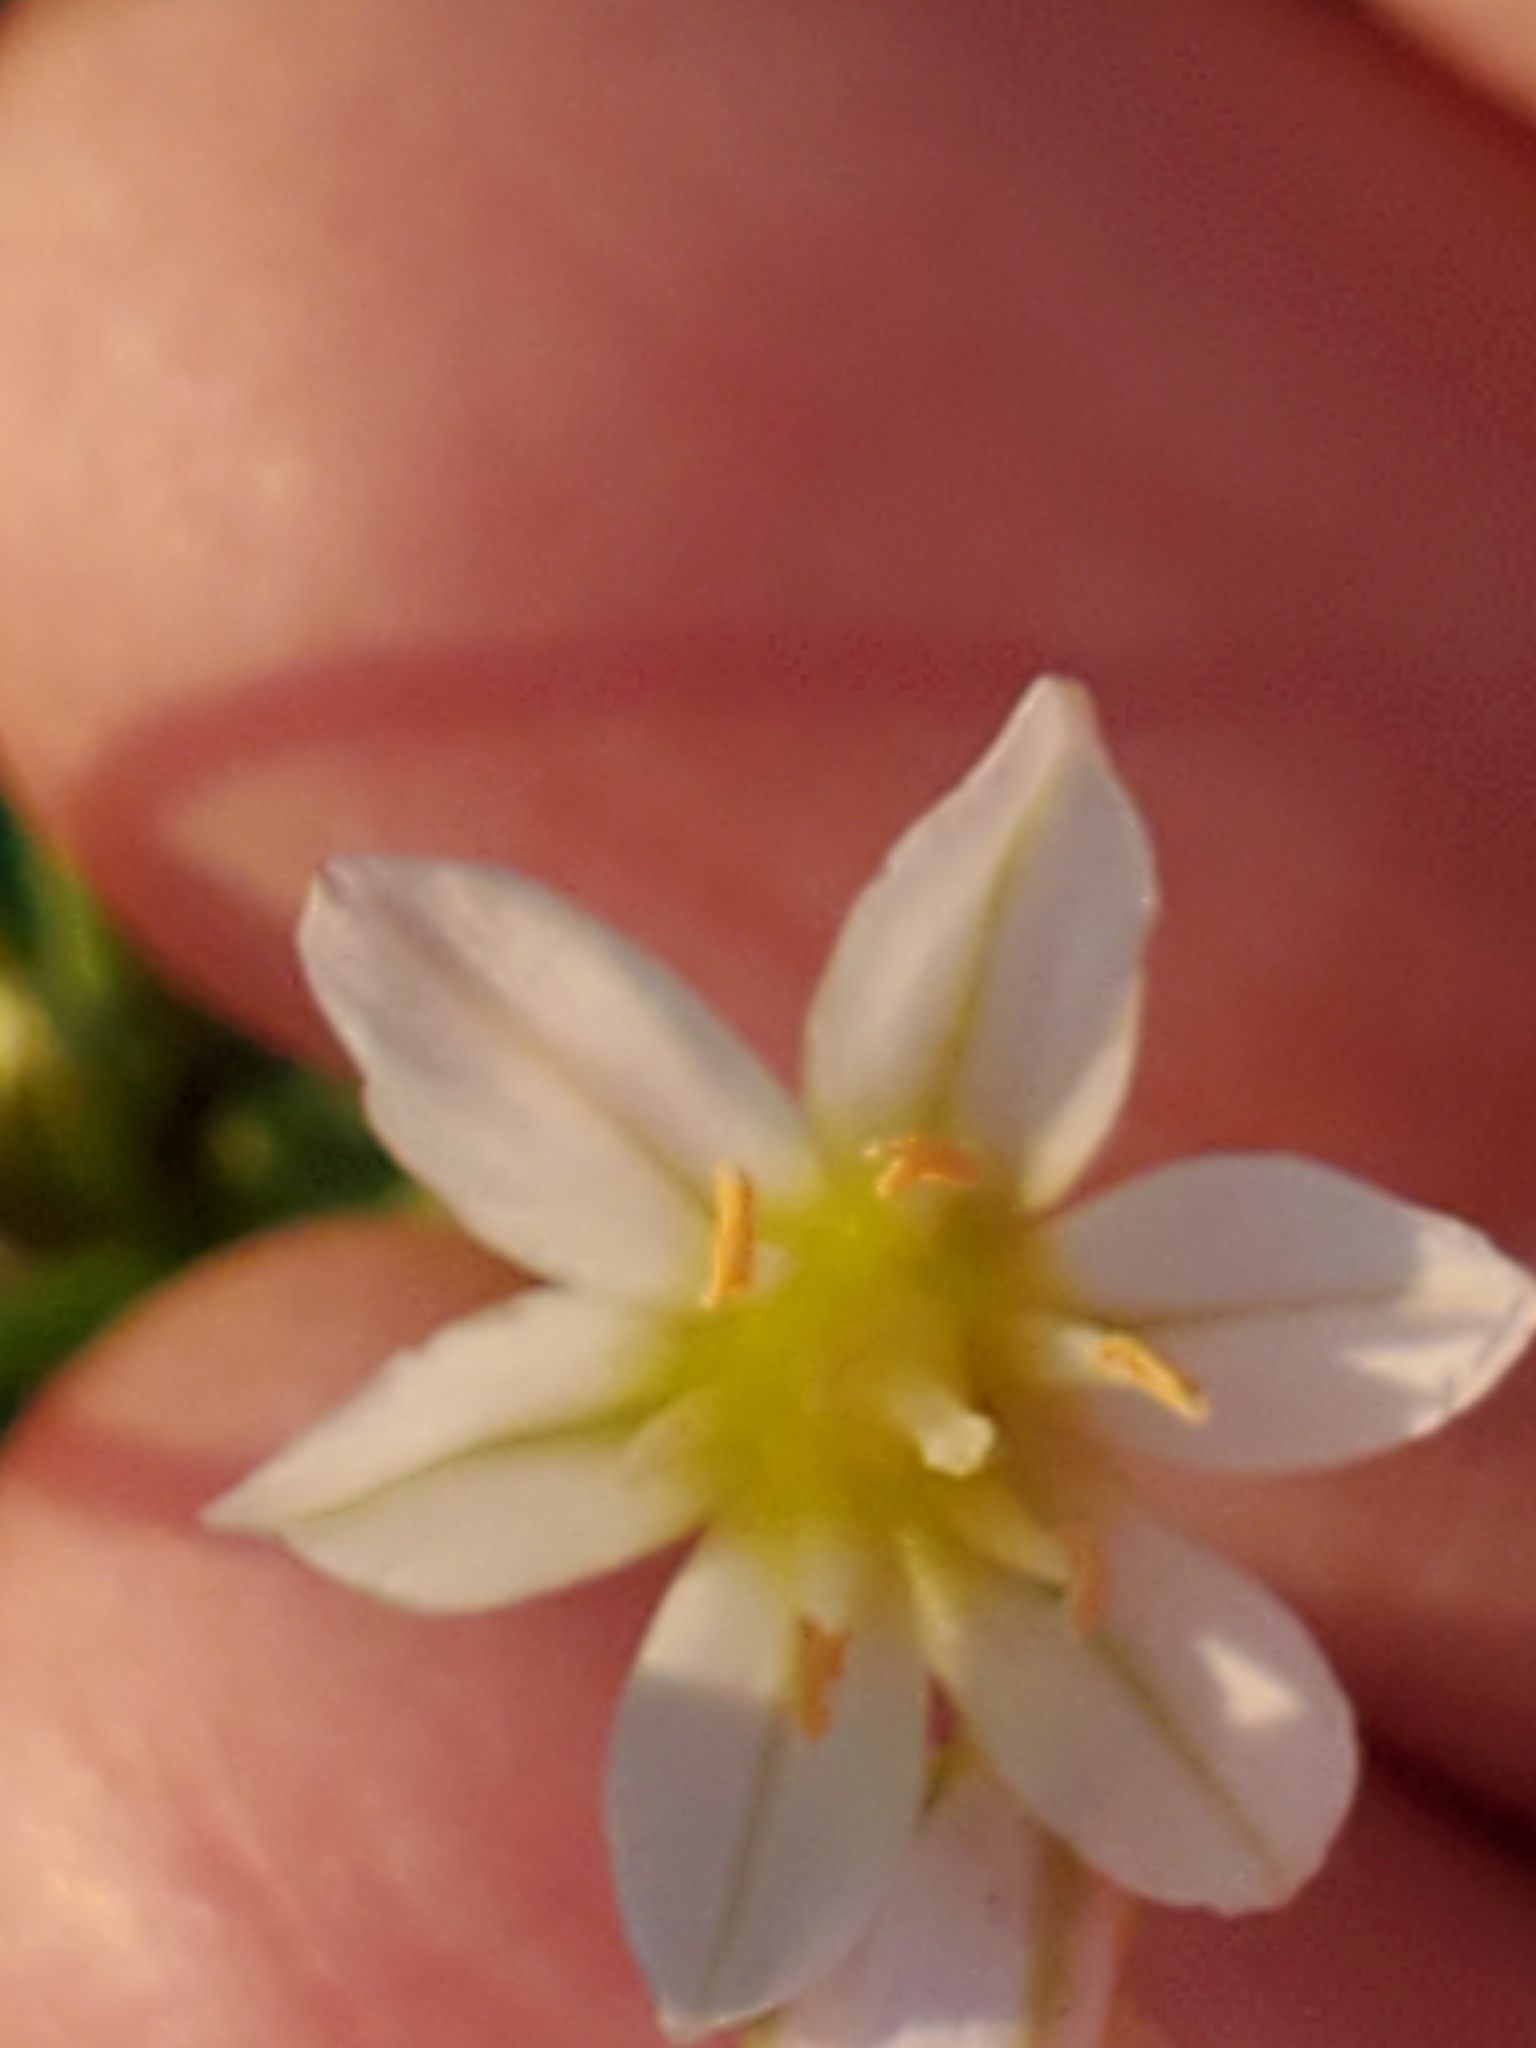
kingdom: Plantae
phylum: Tracheophyta
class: Liliopsida
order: Asparagales
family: Amaryllidaceae
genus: Nothoscordum
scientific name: Nothoscordum bivalve
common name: Crow-poison
